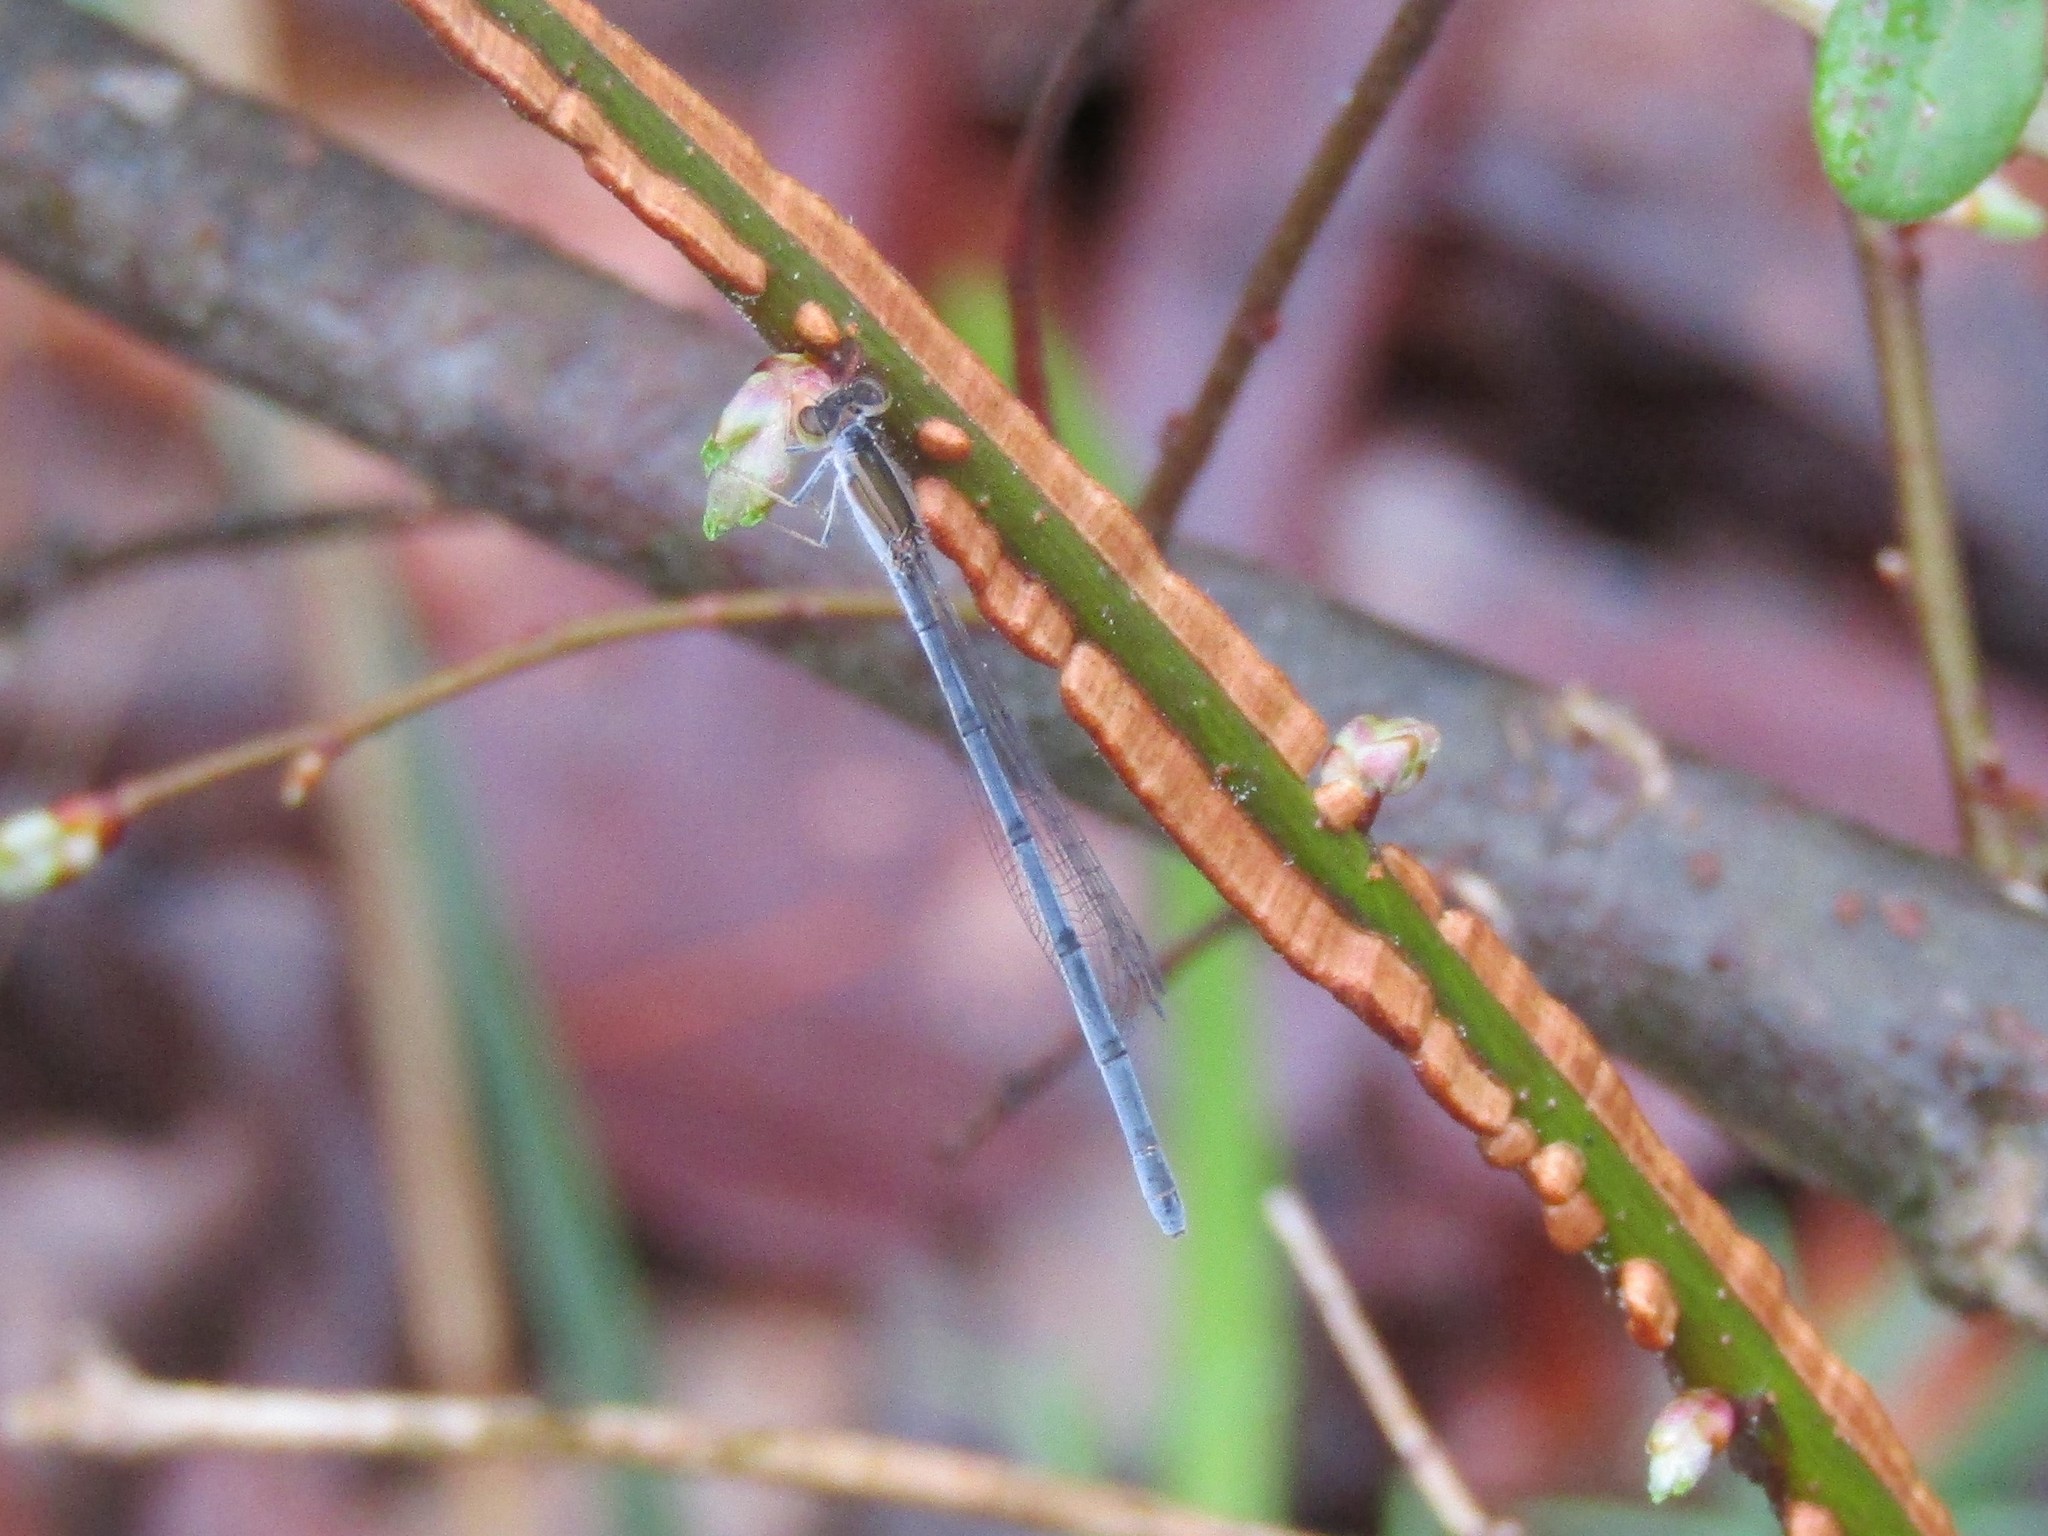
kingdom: Animalia
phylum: Arthropoda
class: Insecta
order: Odonata
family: Coenagrionidae
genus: Ischnura
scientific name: Ischnura hastata
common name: Citrine forktail
